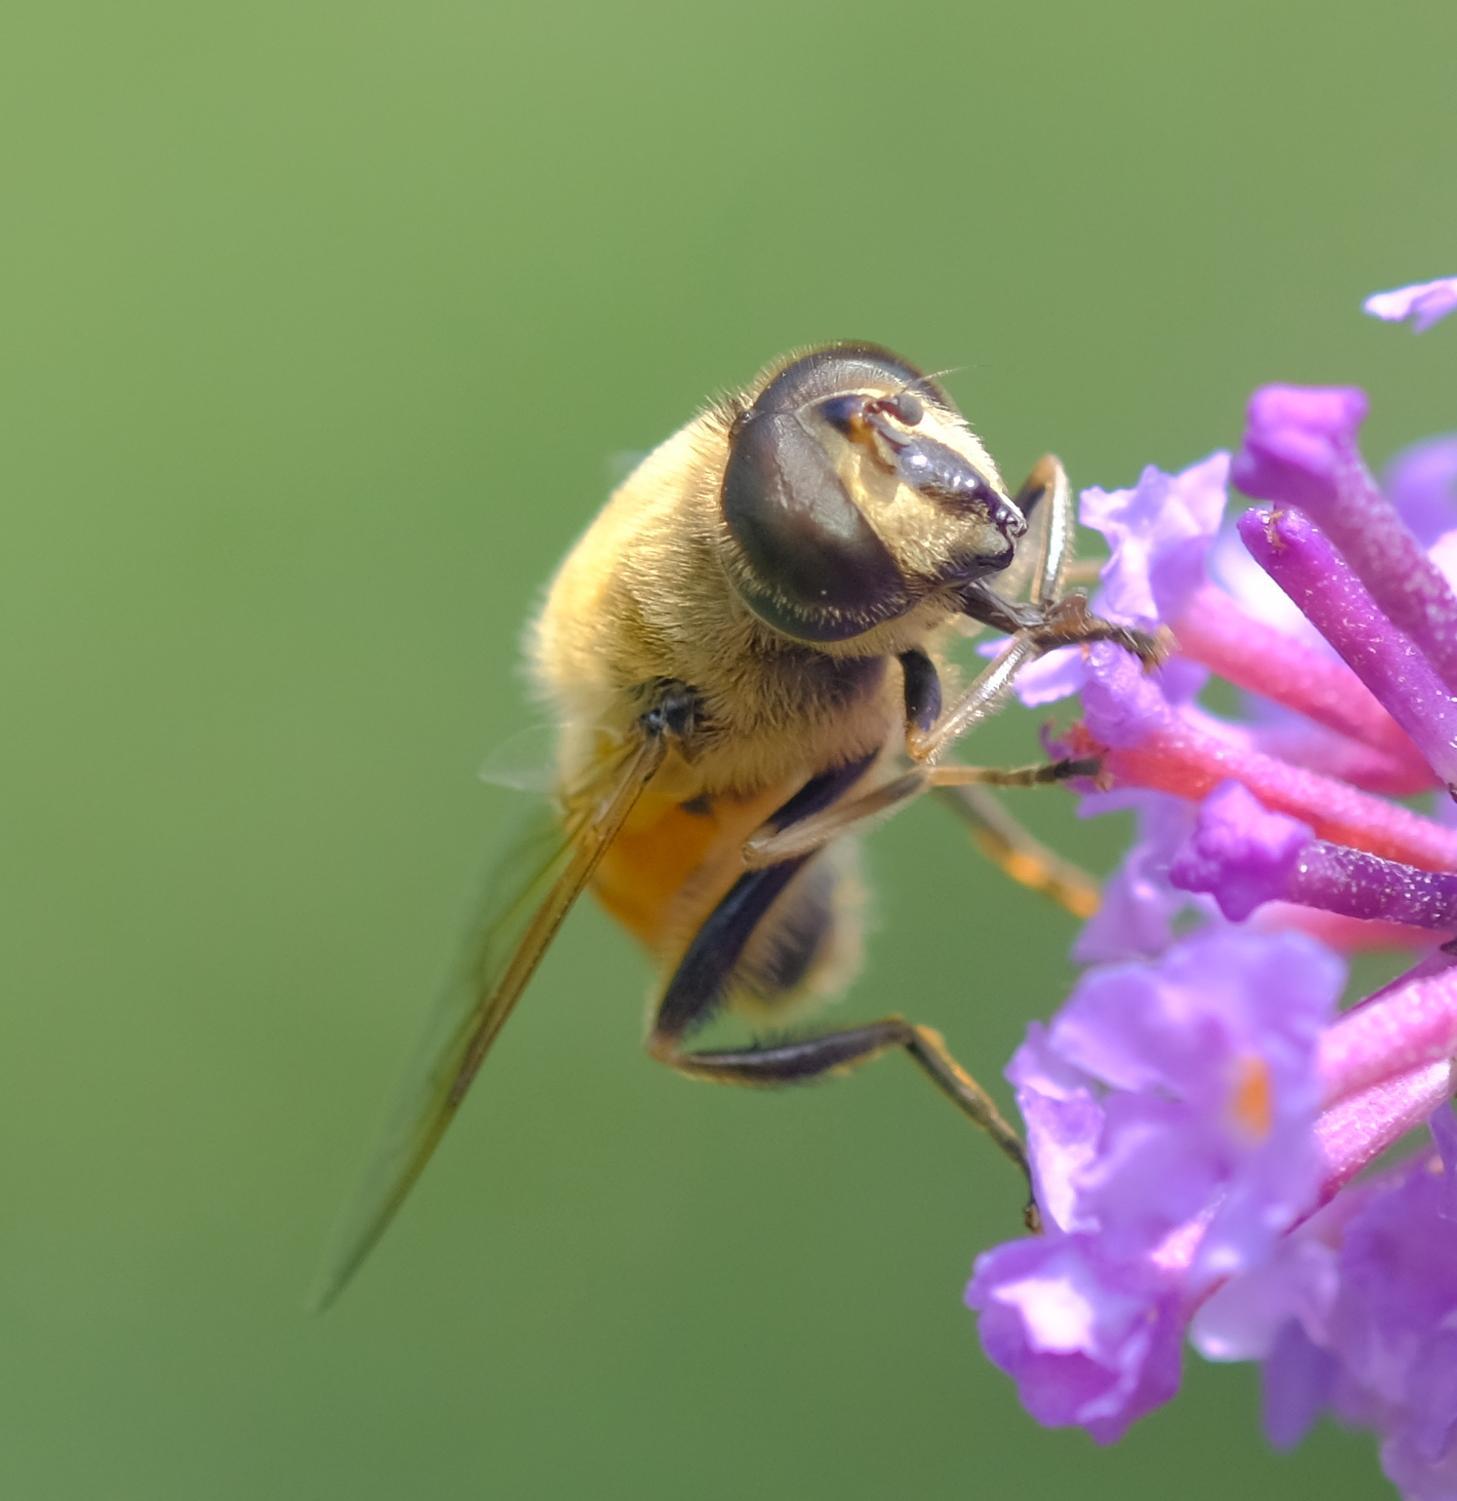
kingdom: Animalia
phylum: Arthropoda
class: Insecta
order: Diptera
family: Syrphidae
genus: Eristalis
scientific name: Eristalis tenax
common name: Drone fly
